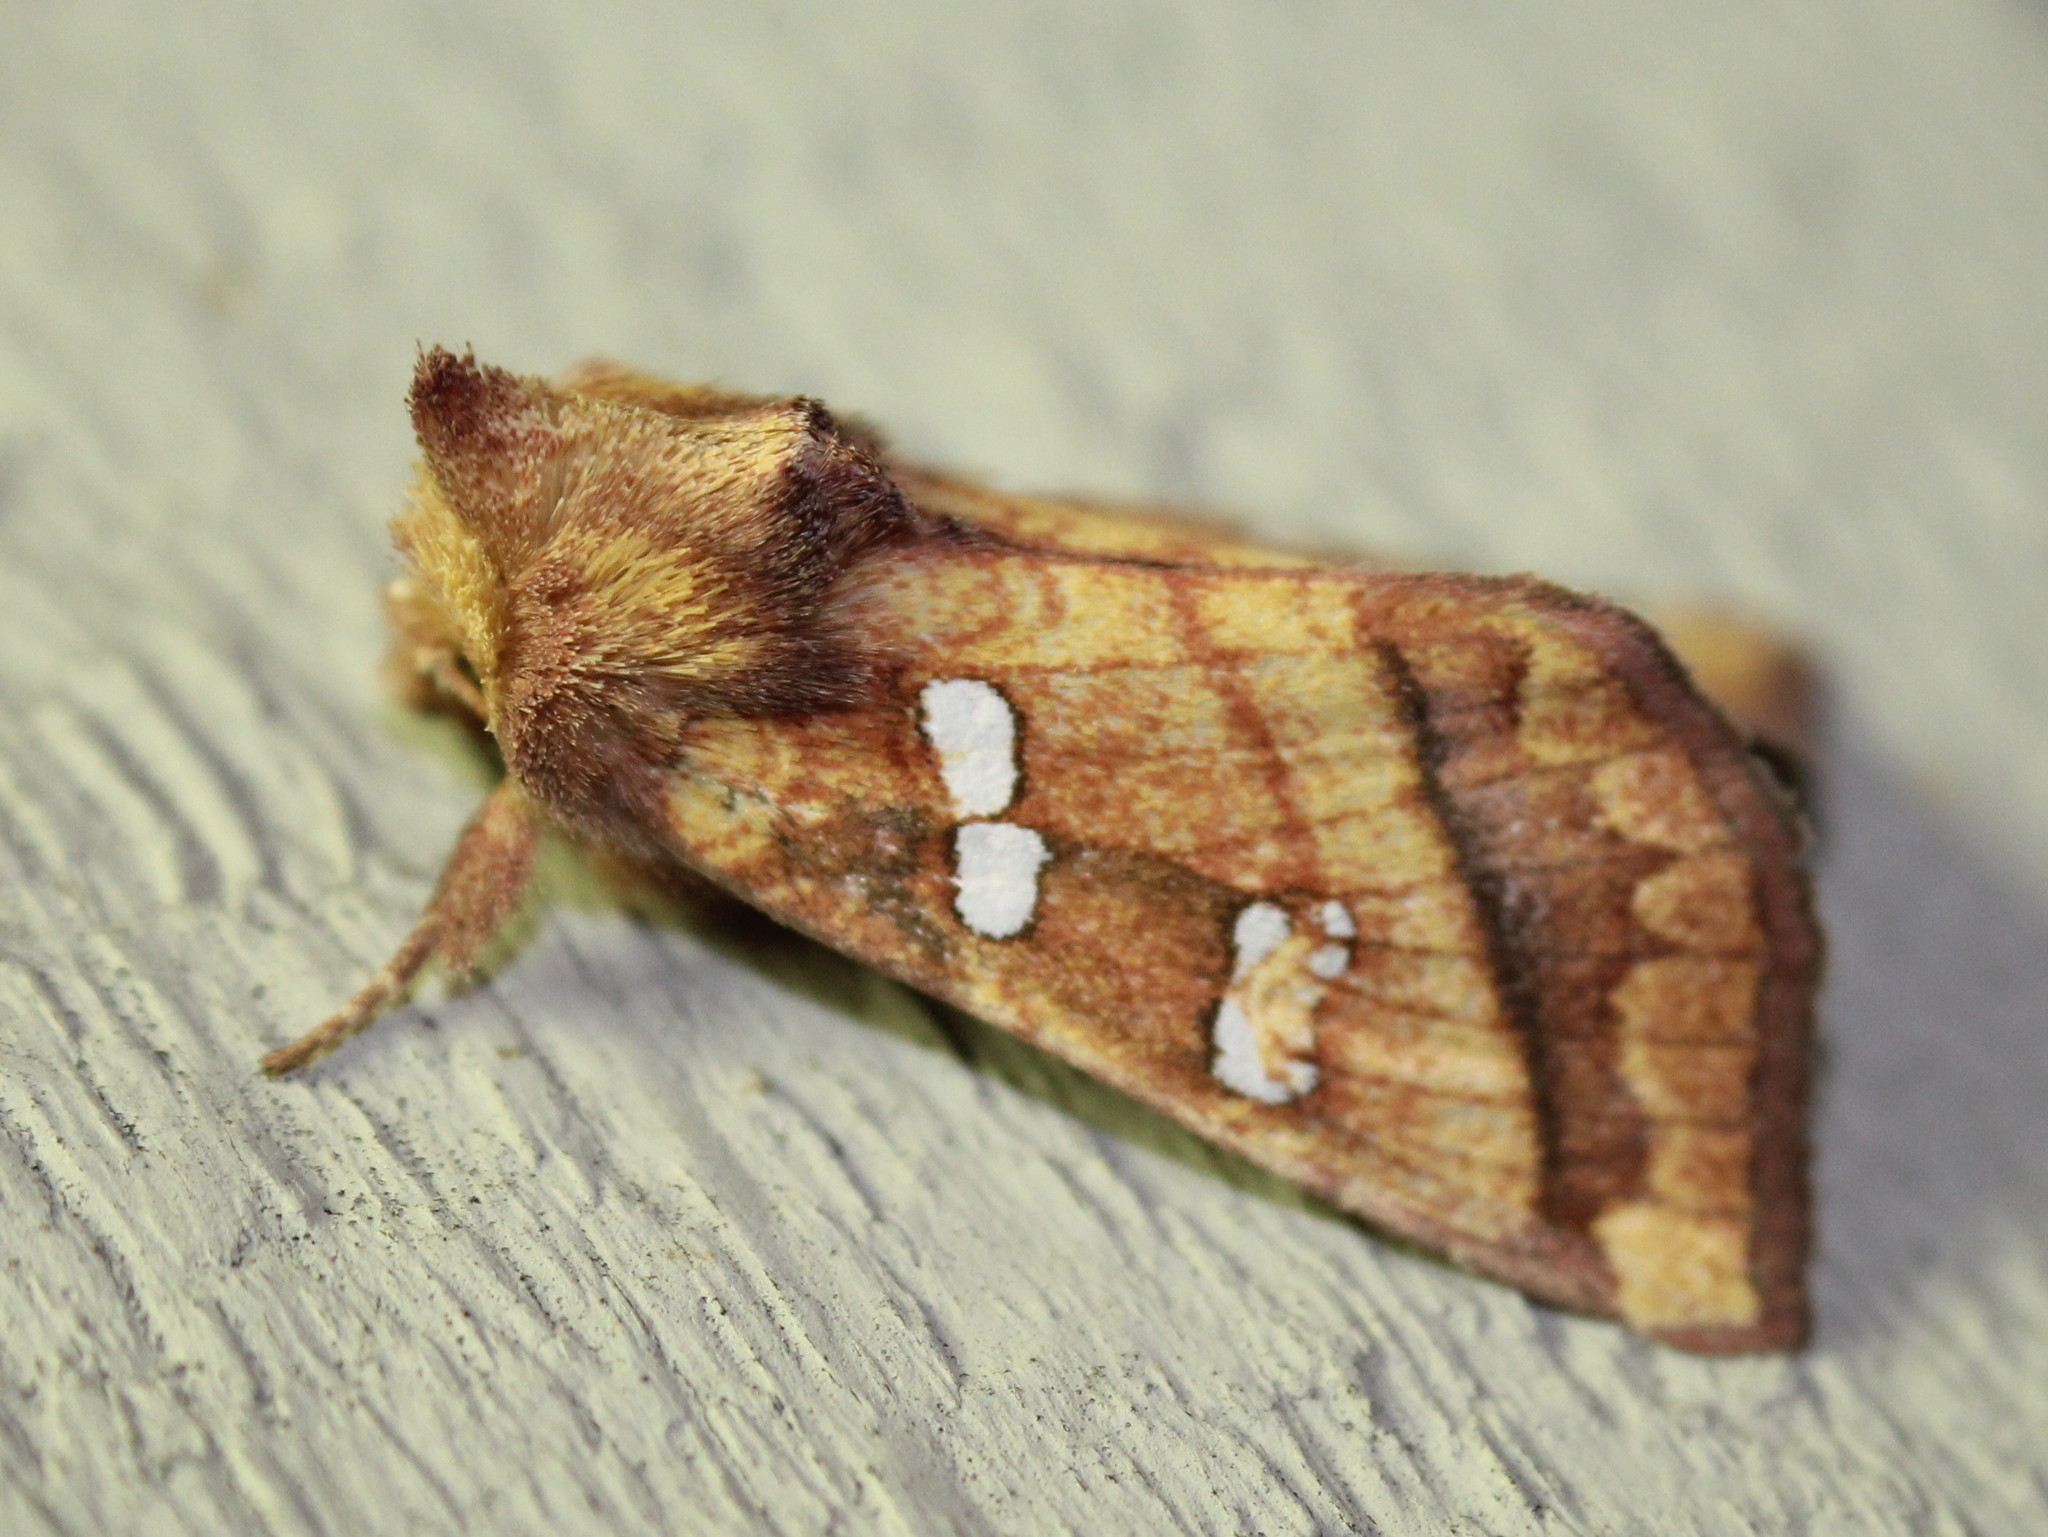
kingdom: Animalia
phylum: Arthropoda
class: Insecta
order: Lepidoptera
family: Noctuidae
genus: Papaipema
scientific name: Papaipema pterisii
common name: Bracken borer moth
